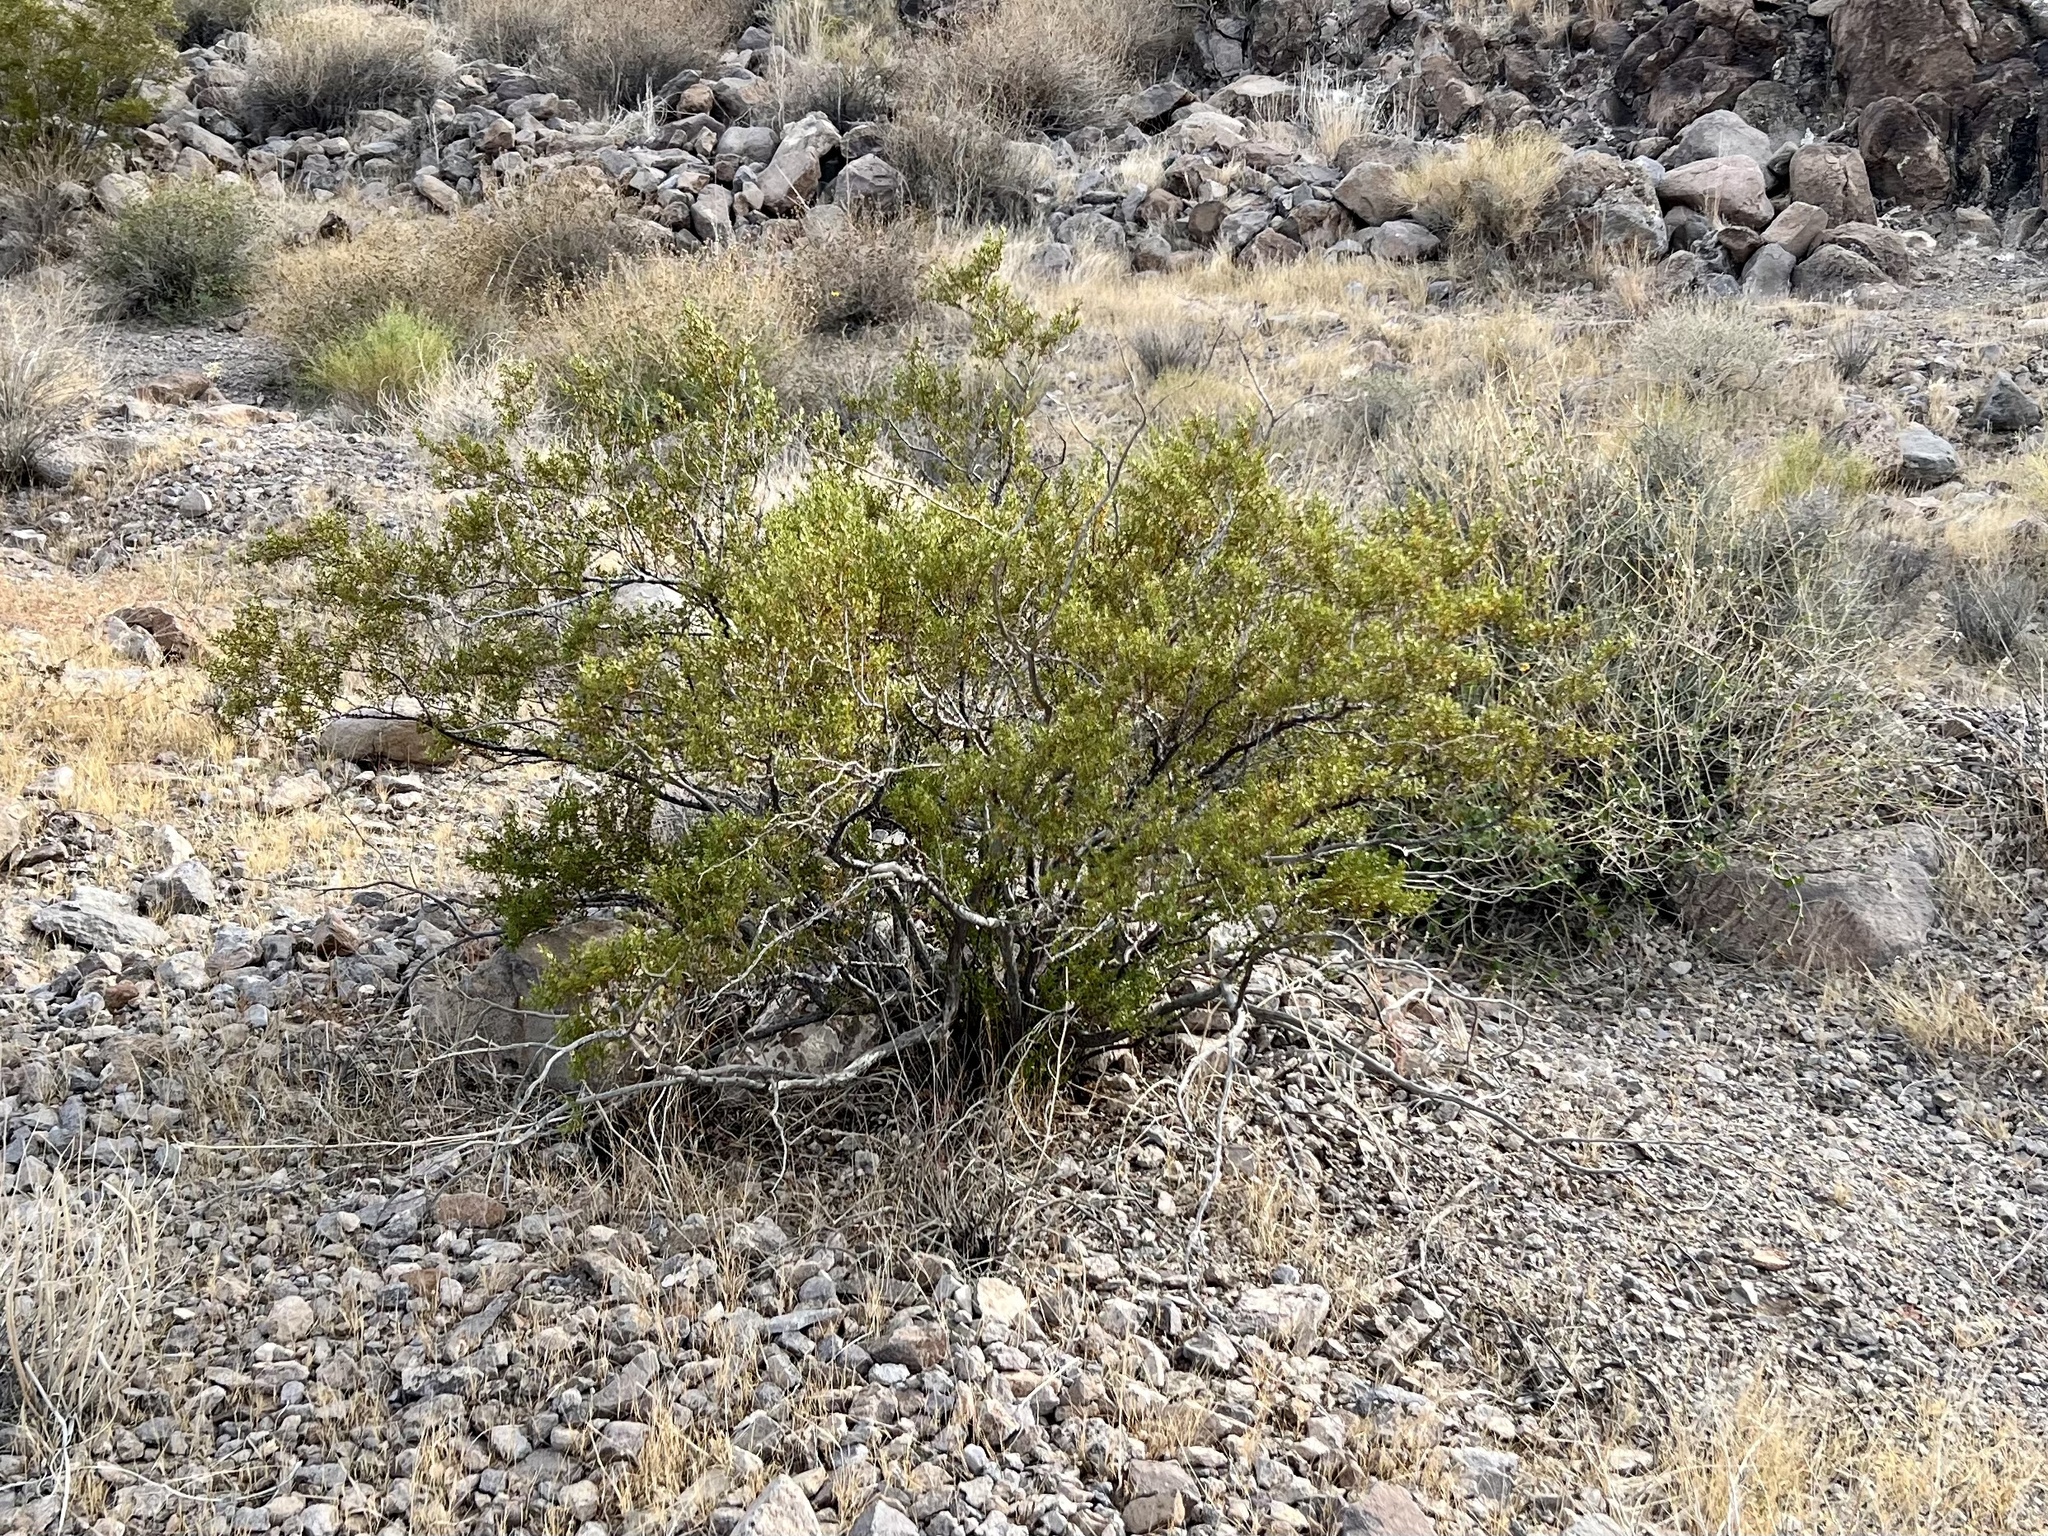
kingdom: Plantae
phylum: Tracheophyta
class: Magnoliopsida
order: Zygophyllales
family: Zygophyllaceae
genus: Larrea
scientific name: Larrea tridentata
